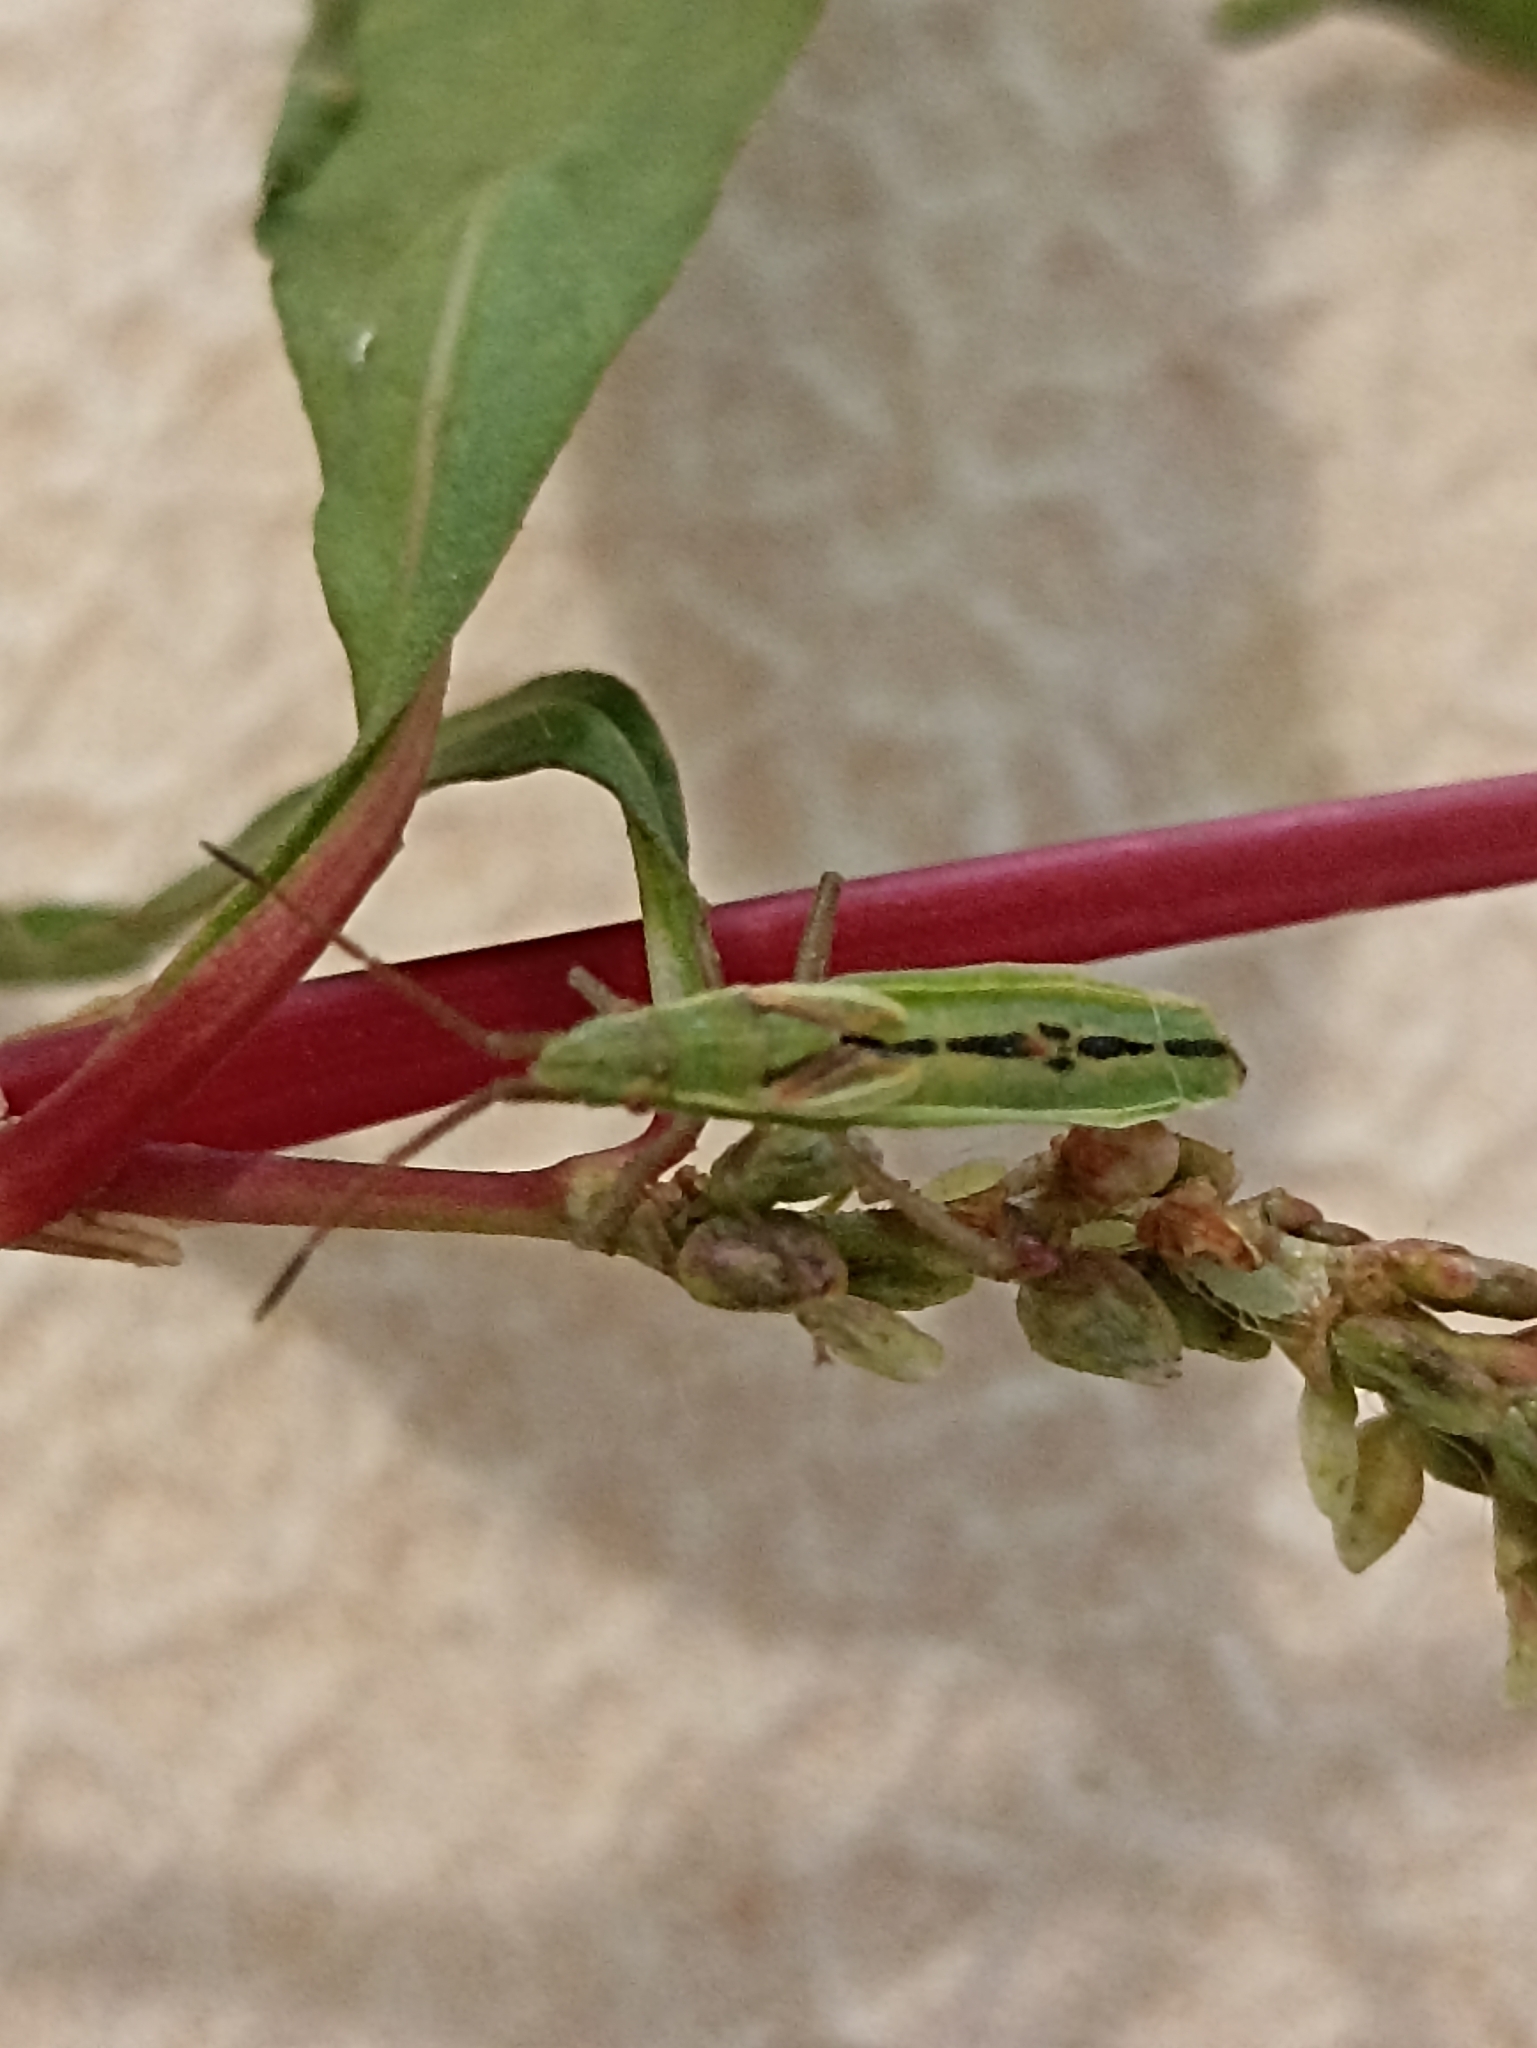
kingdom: Animalia
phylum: Arthropoda
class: Insecta
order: Hemiptera
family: Rhopalidae
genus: Myrmus
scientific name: Myrmus miriformis
